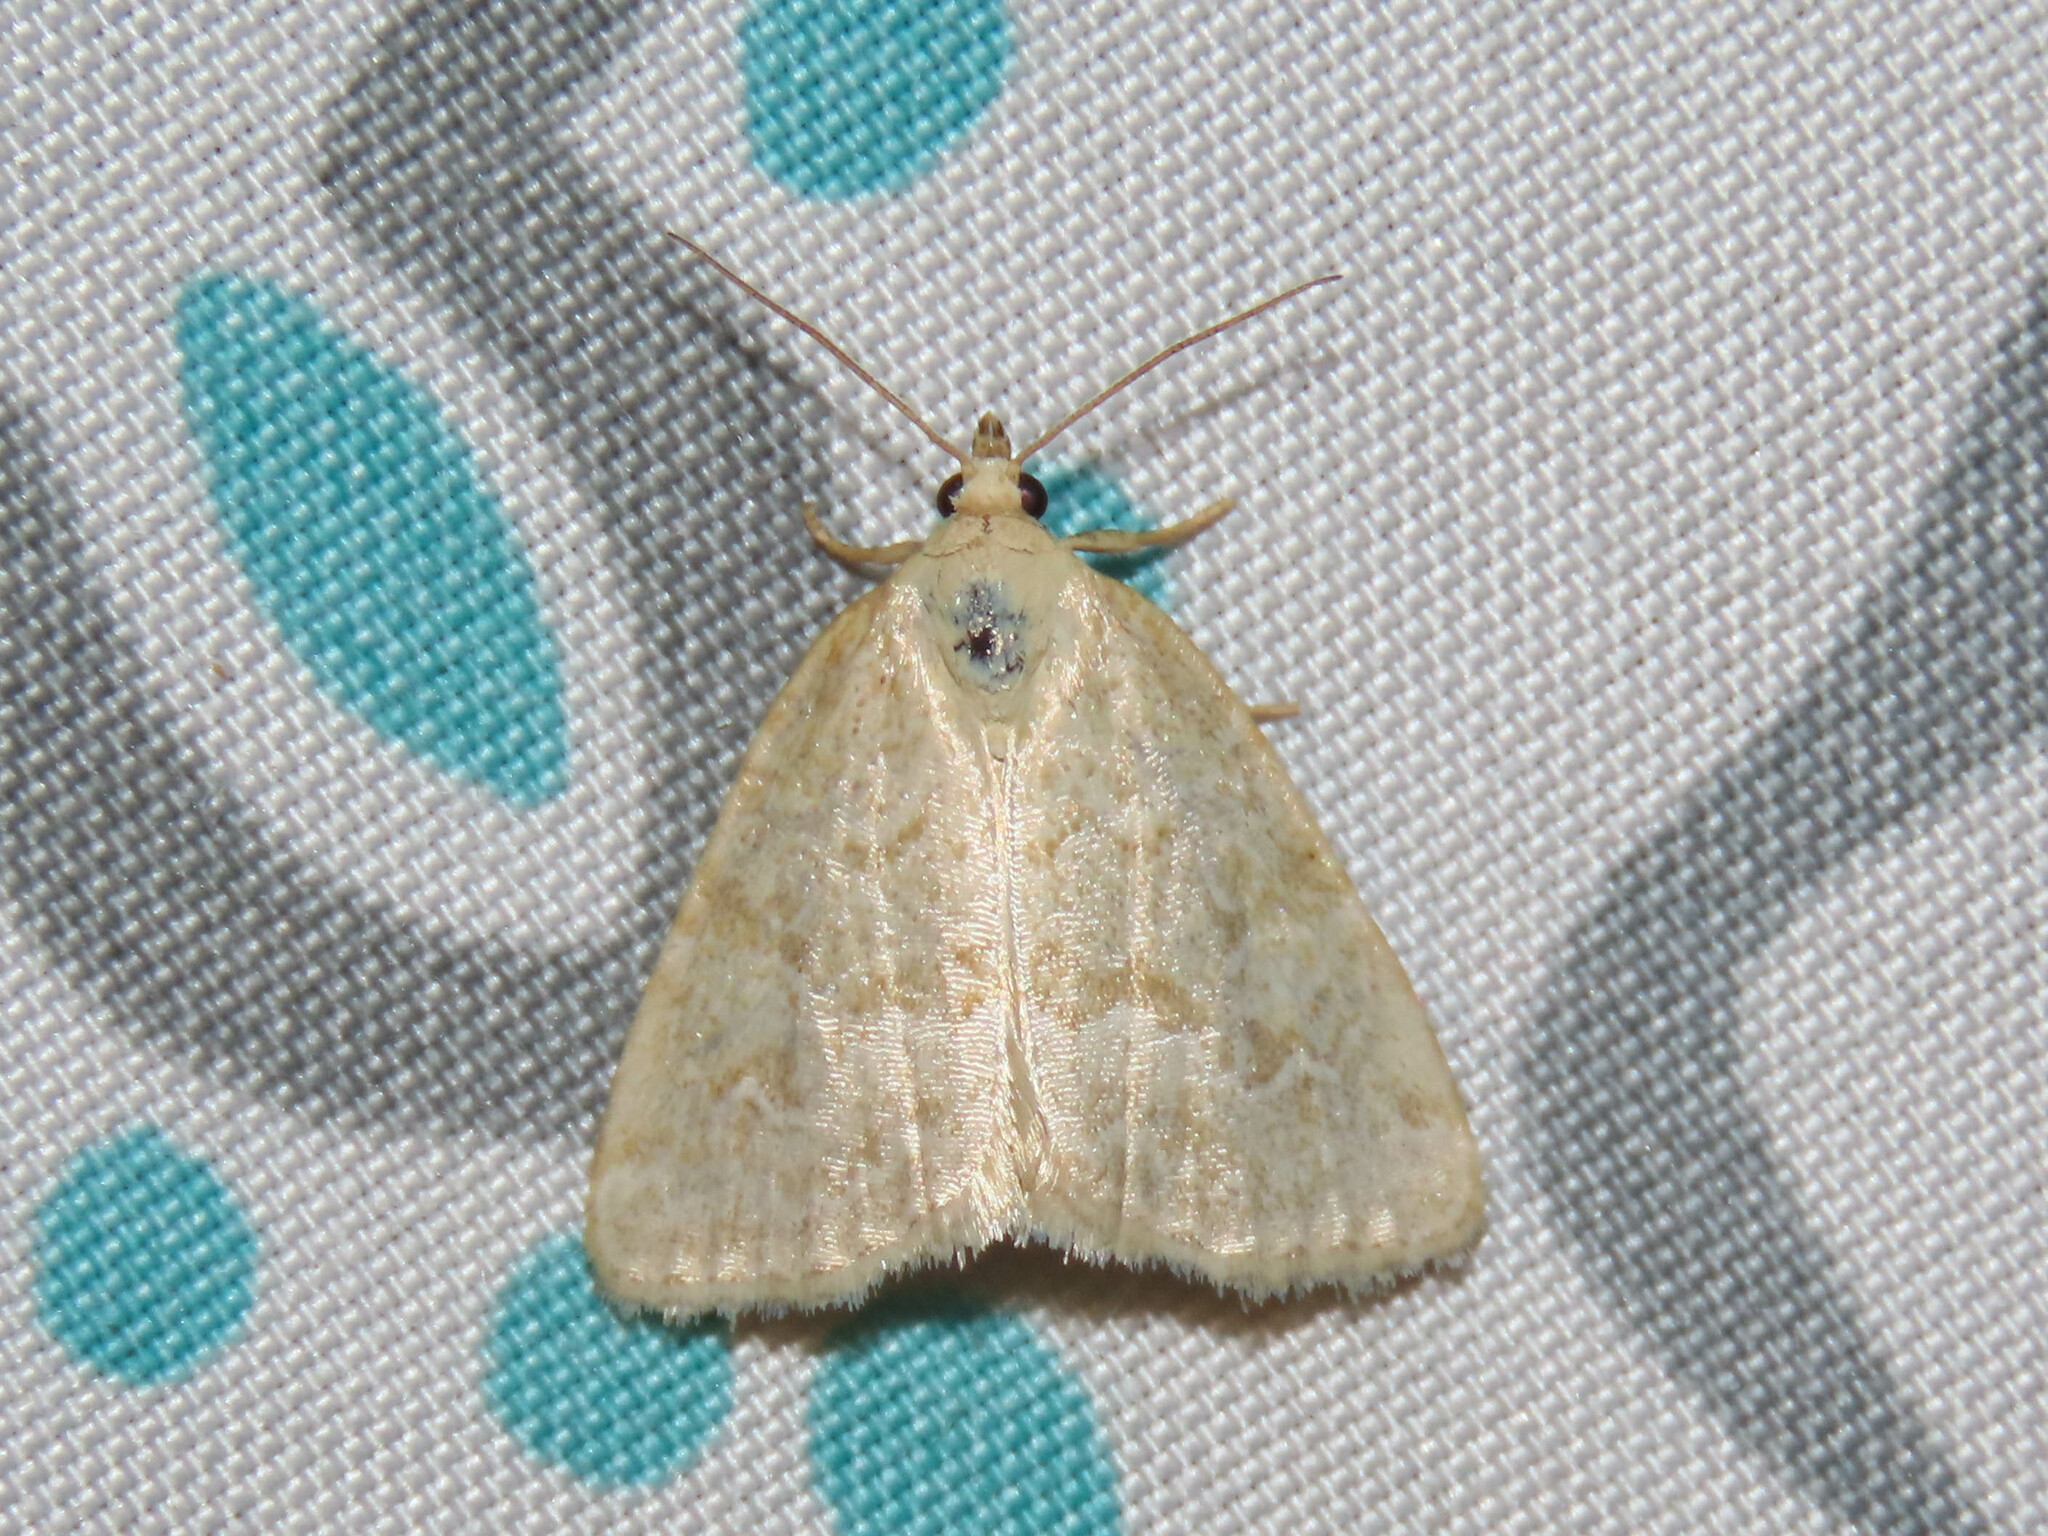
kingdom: Animalia
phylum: Arthropoda
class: Insecta
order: Lepidoptera
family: Noctuidae
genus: Protodeltote
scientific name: Protodeltote albidula
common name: Pale glyph
